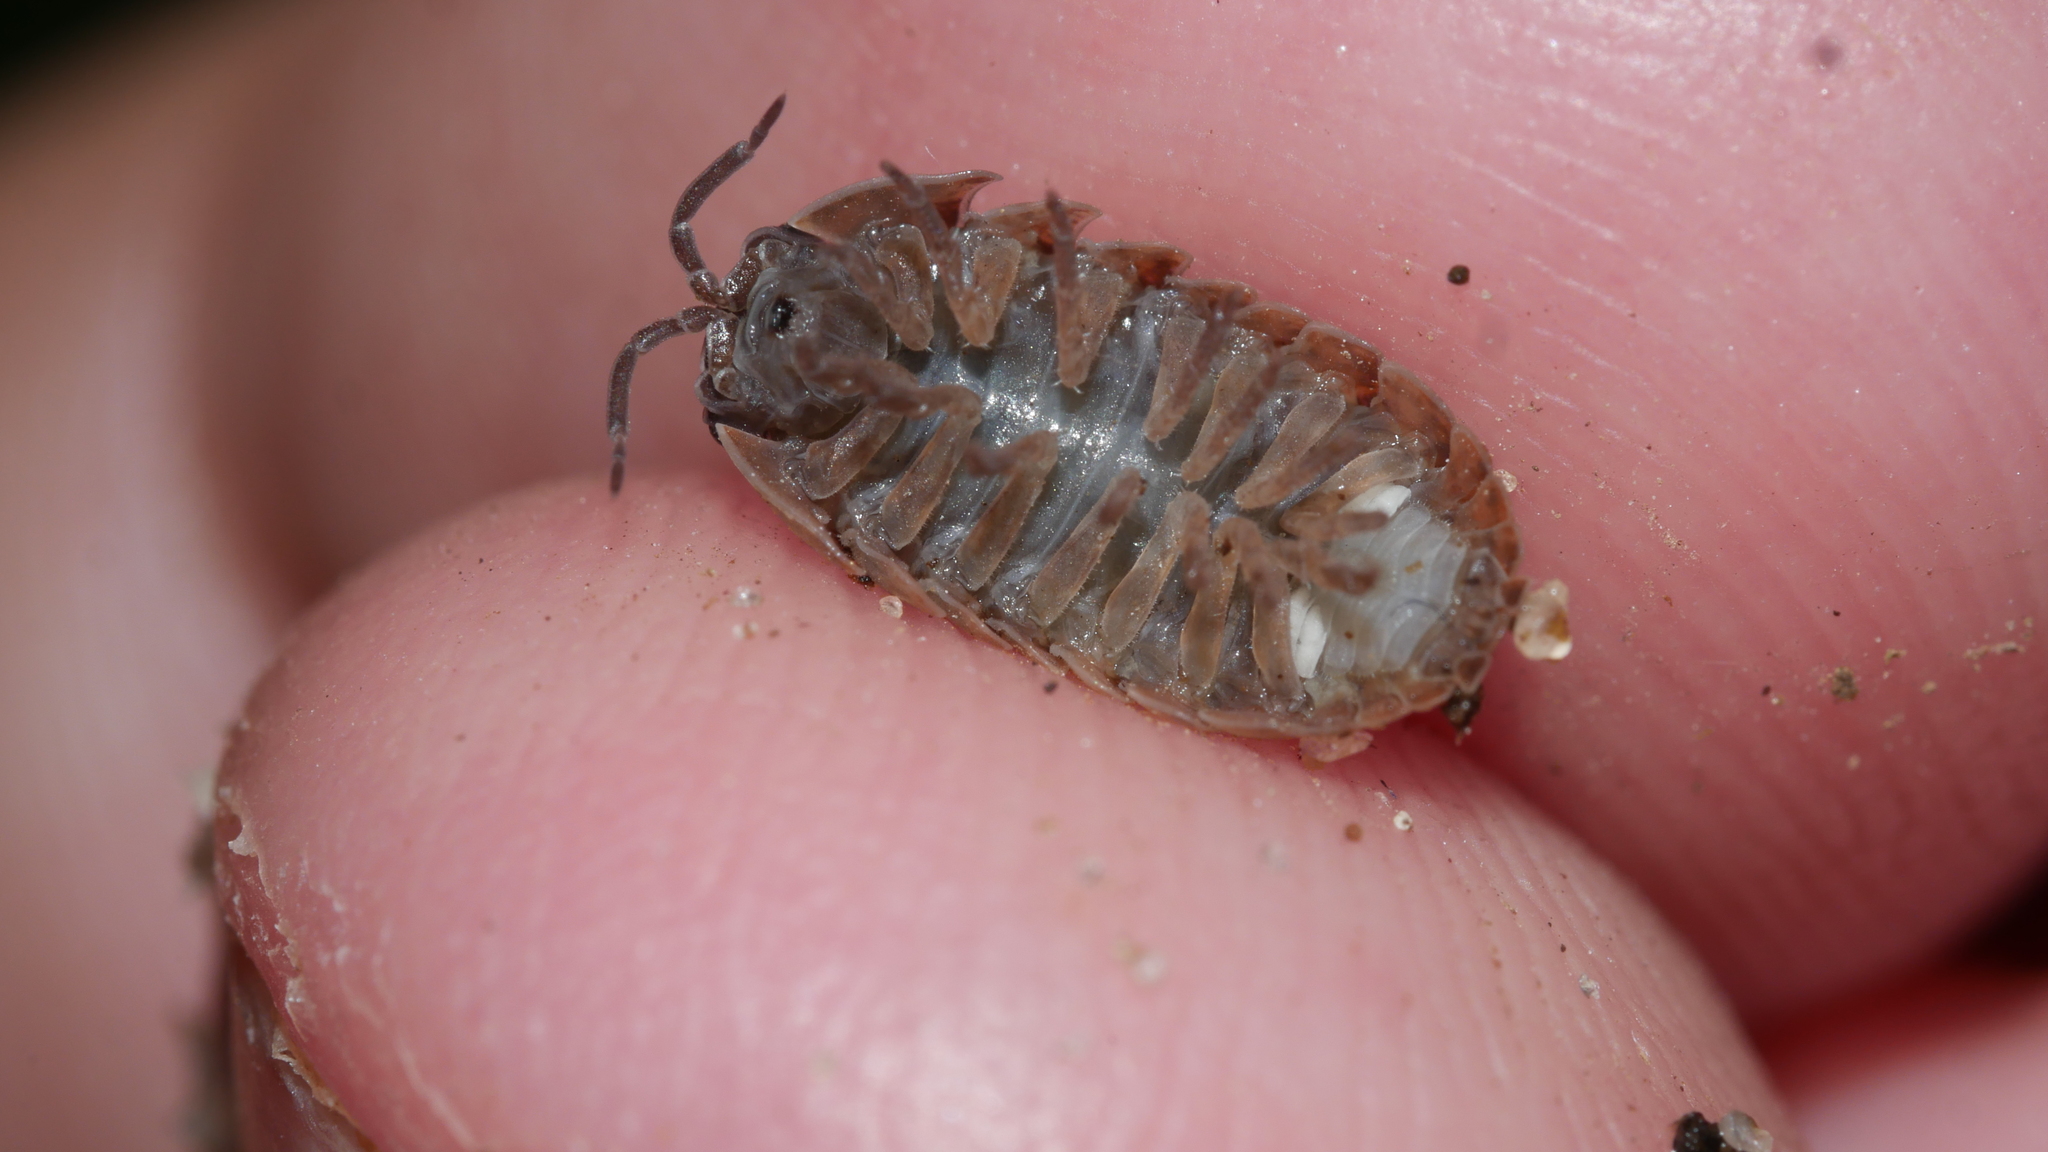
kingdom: Animalia
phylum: Arthropoda
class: Malacostraca
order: Isopoda
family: Armadillidiidae
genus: Armadillidium
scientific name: Armadillidium vulgare
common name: Common pill woodlouse
